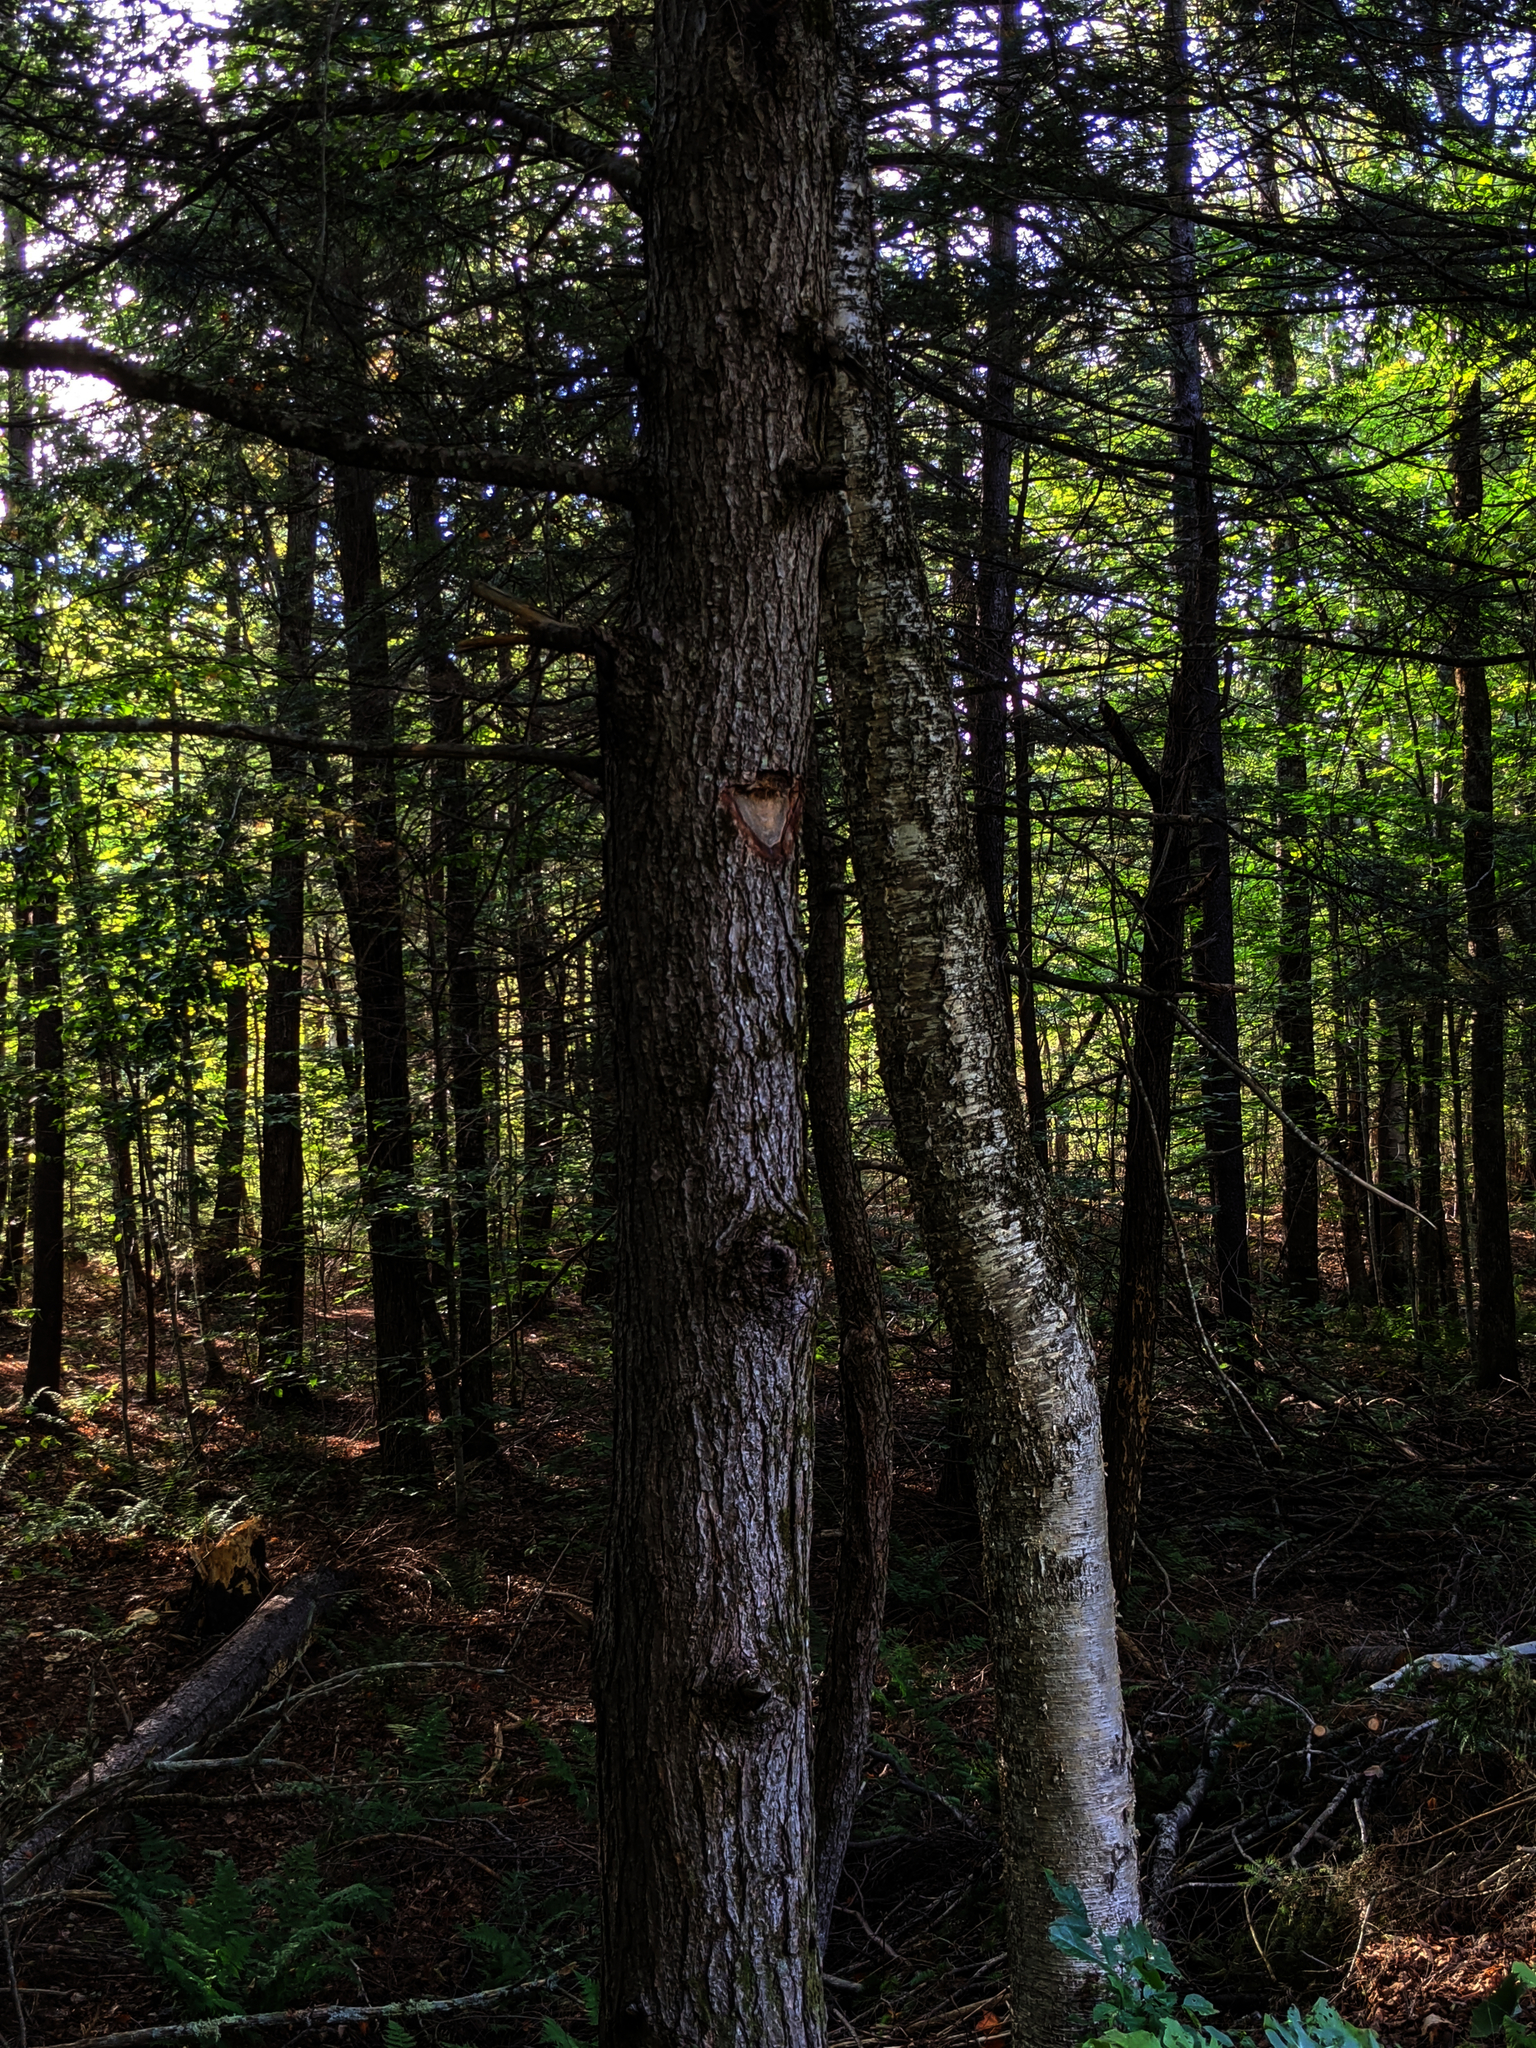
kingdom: Plantae
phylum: Tracheophyta
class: Pinopsida
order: Pinales
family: Pinaceae
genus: Tsuga
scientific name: Tsuga canadensis
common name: Eastern hemlock
